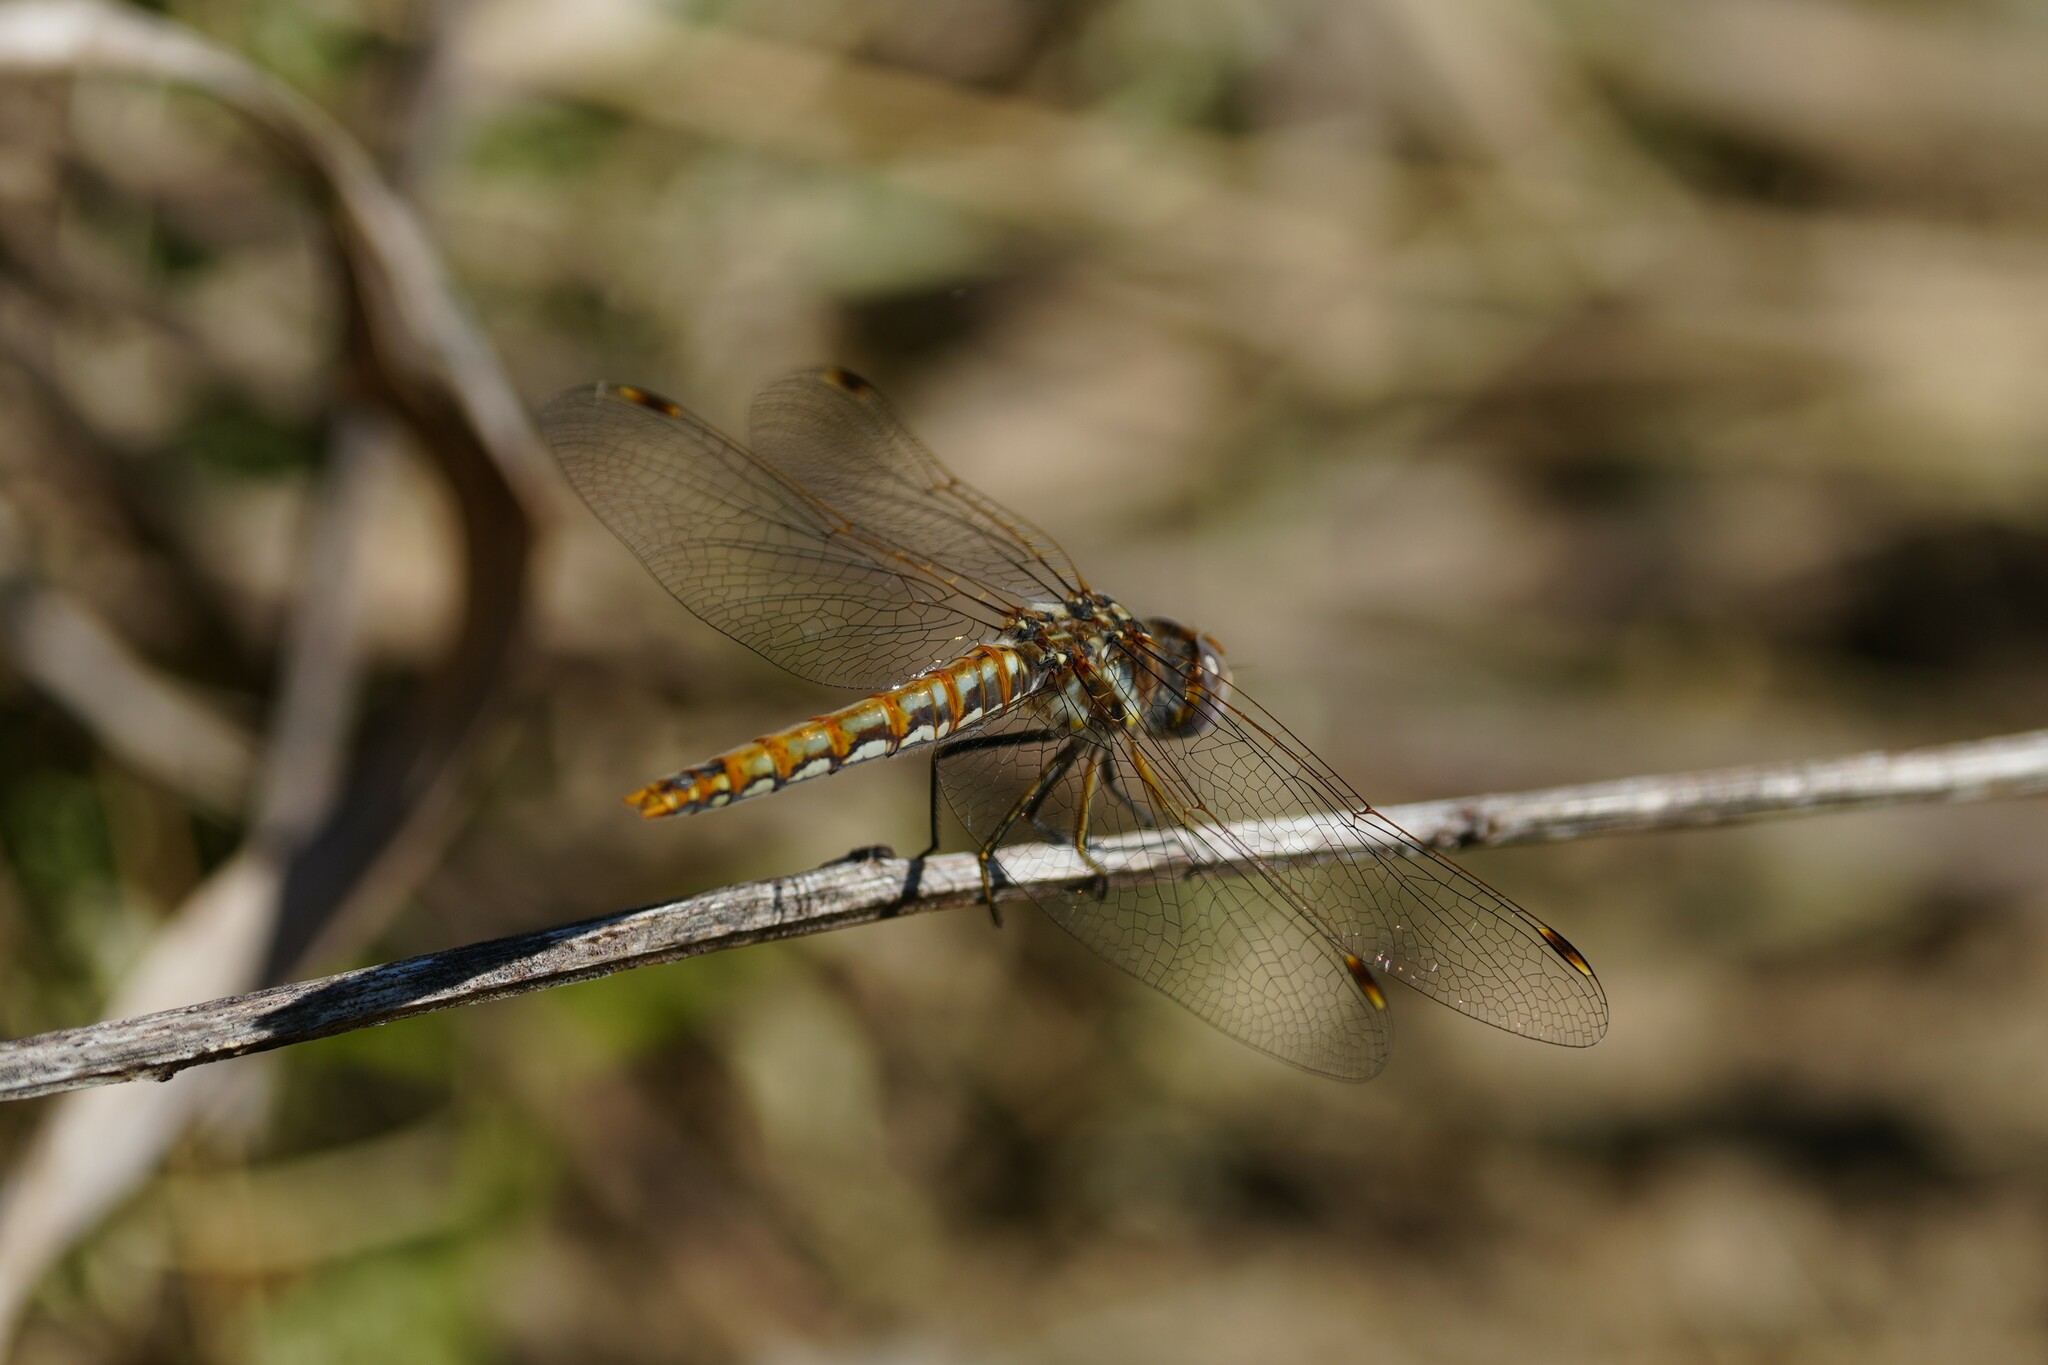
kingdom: Animalia
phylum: Arthropoda
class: Insecta
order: Odonata
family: Libellulidae
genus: Sympetrum
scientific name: Sympetrum corruptum
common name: Variegated meadowhawk
